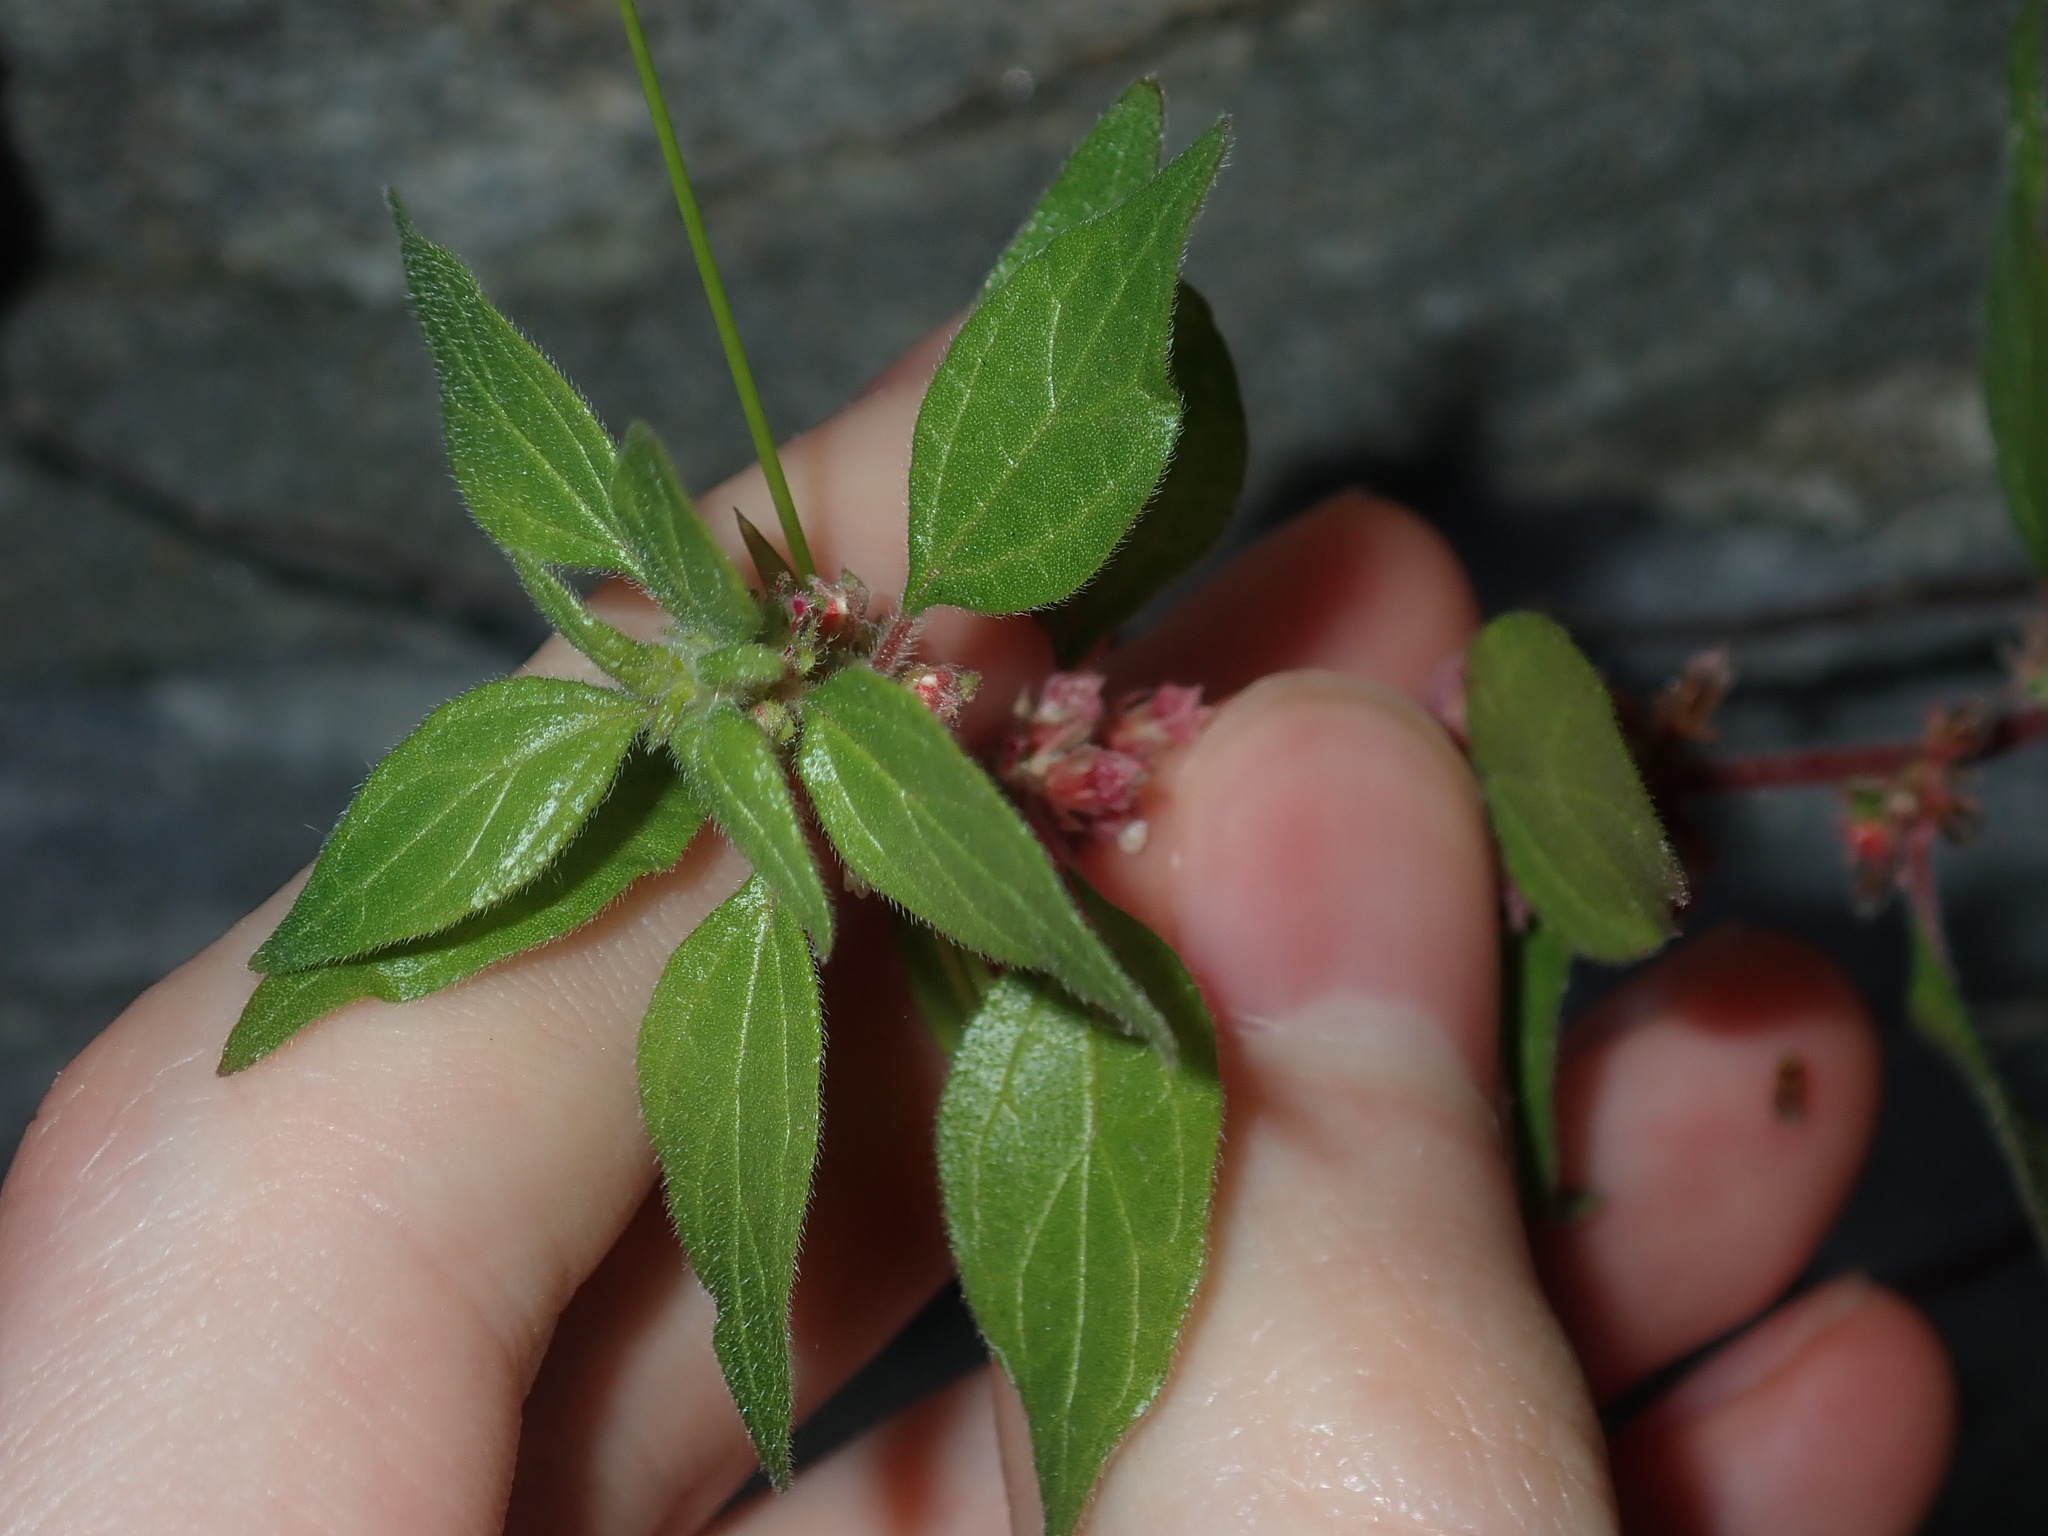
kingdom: Plantae
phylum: Tracheophyta
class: Magnoliopsida
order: Rosales
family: Urticaceae
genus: Parietaria
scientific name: Parietaria judaica
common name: Pellitory-of-the-wall
